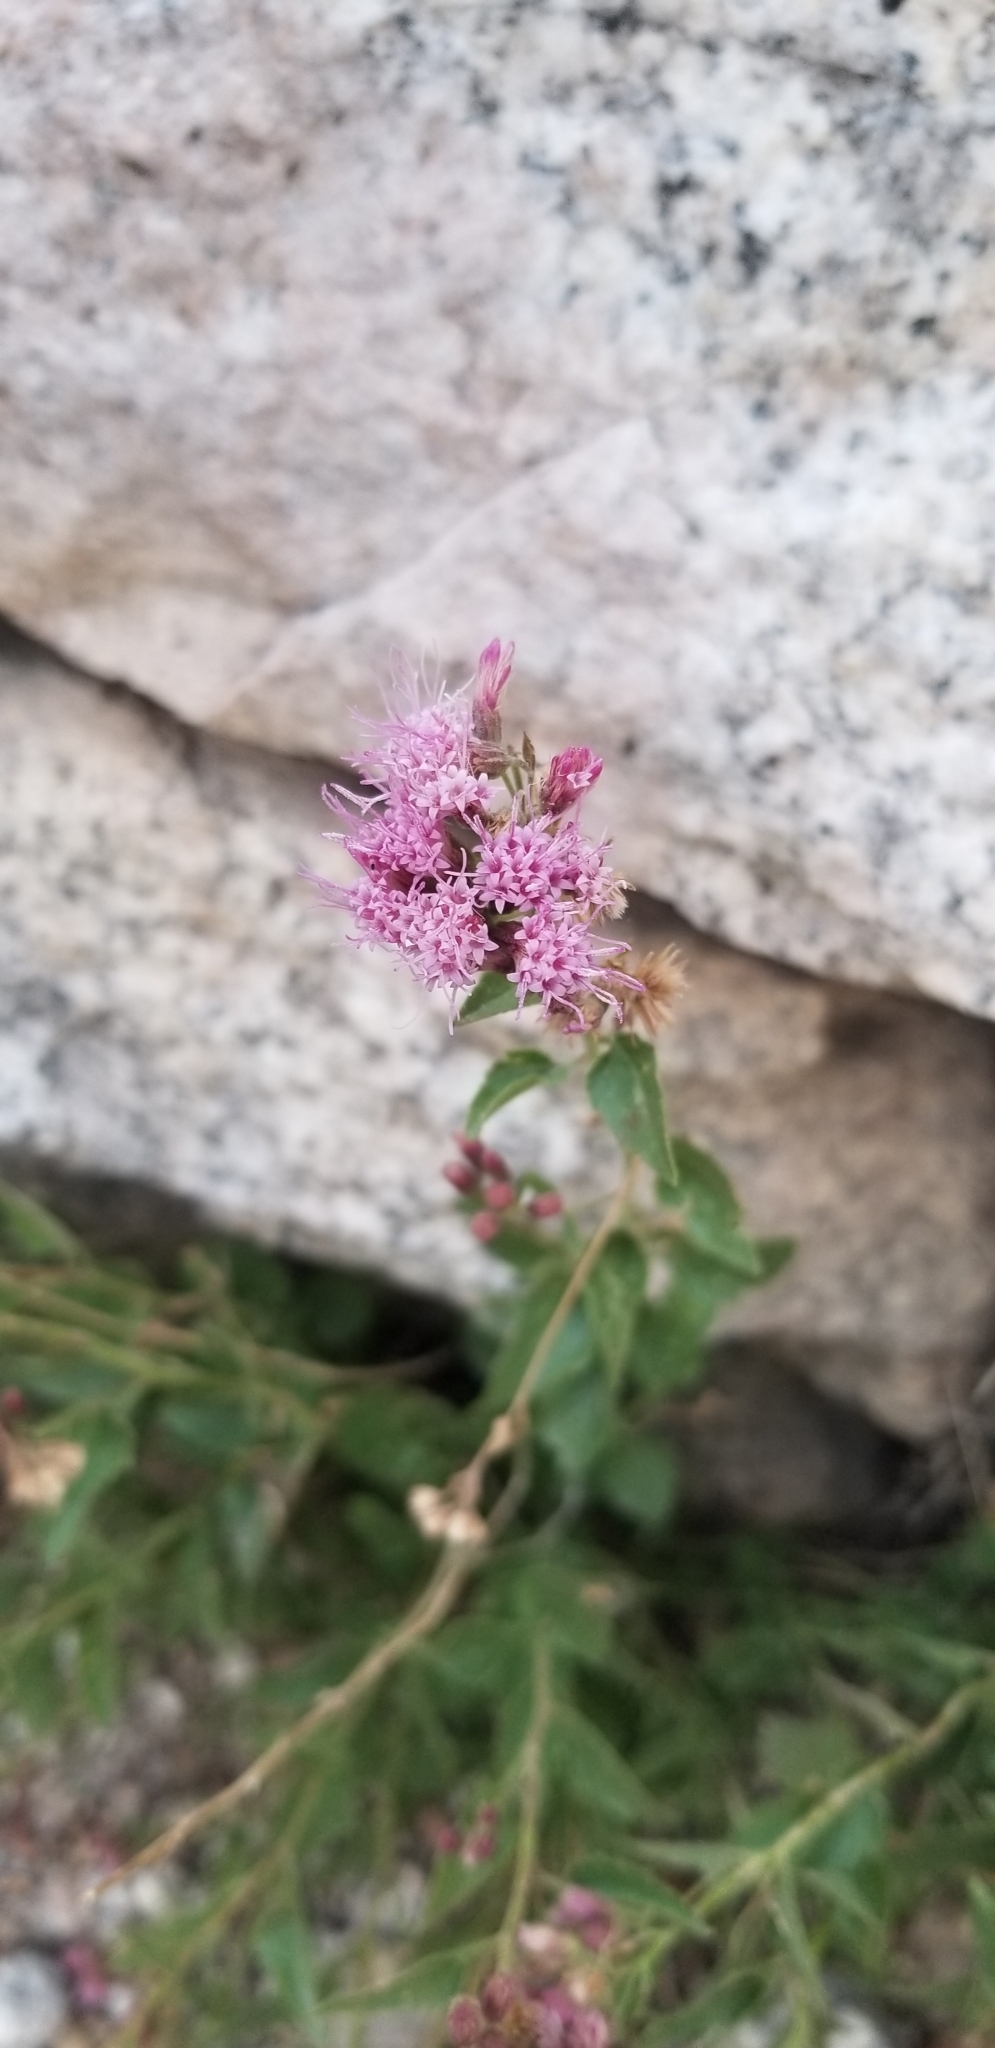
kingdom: Plantae
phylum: Tracheophyta
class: Magnoliopsida
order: Asterales
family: Asteraceae
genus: Ageratina
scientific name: Ageratina occidentalis
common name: Western snakeroot
